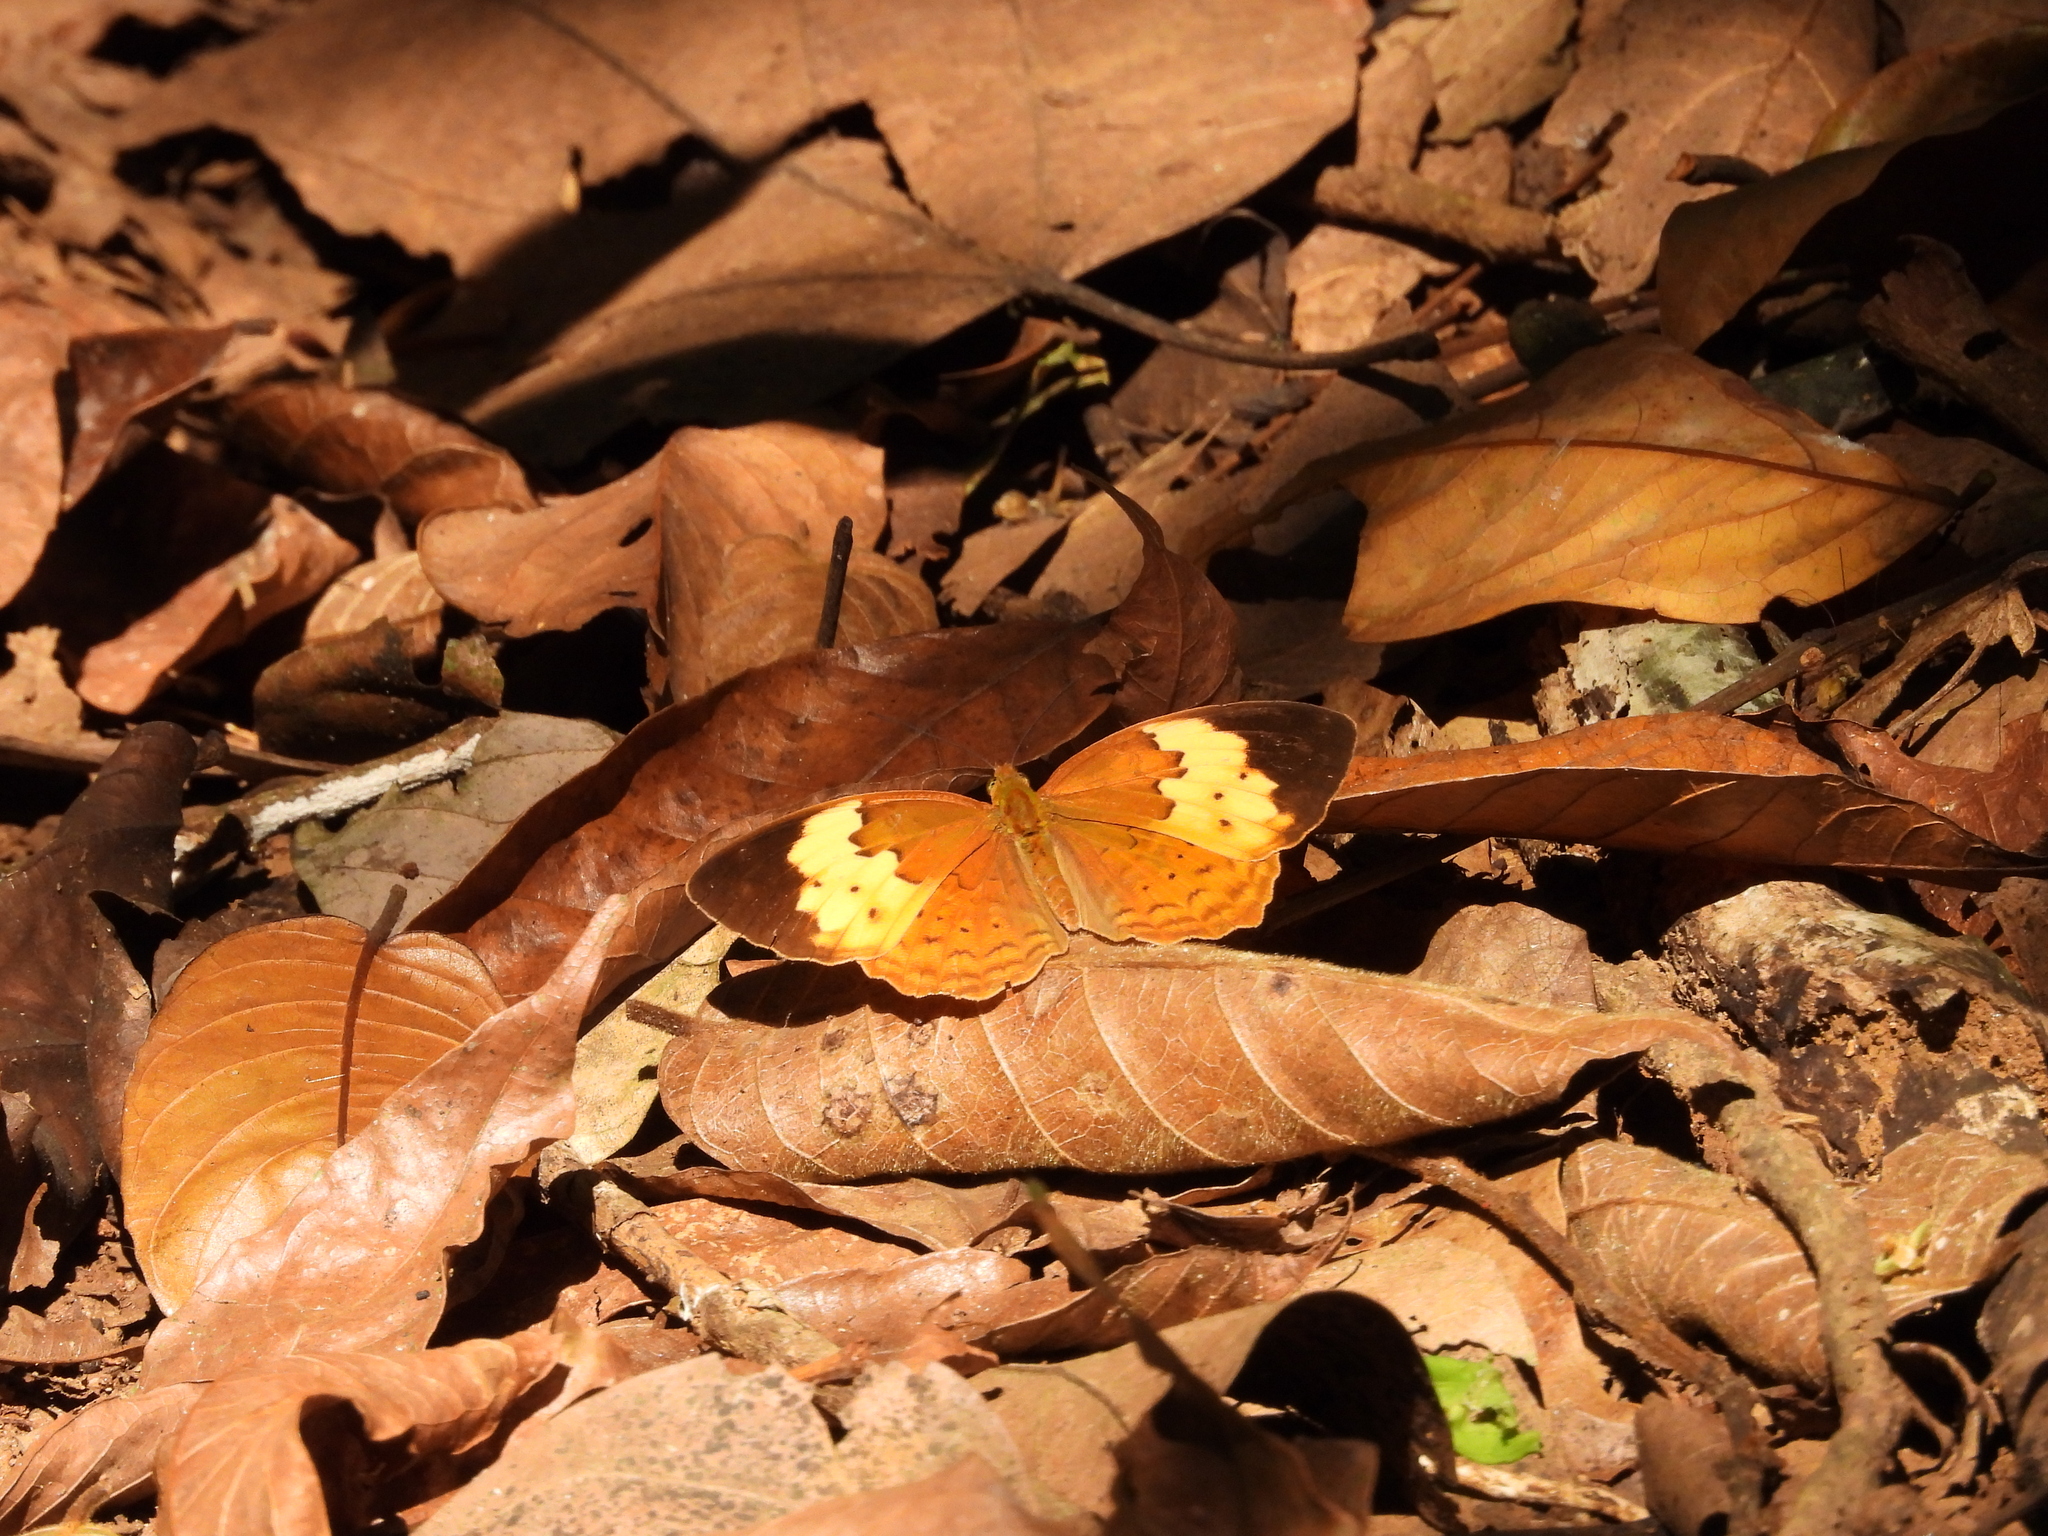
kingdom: Animalia
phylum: Arthropoda
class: Insecta
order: Lepidoptera
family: Nymphalidae
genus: Cupha
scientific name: Cupha erymanthis
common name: Rustic
